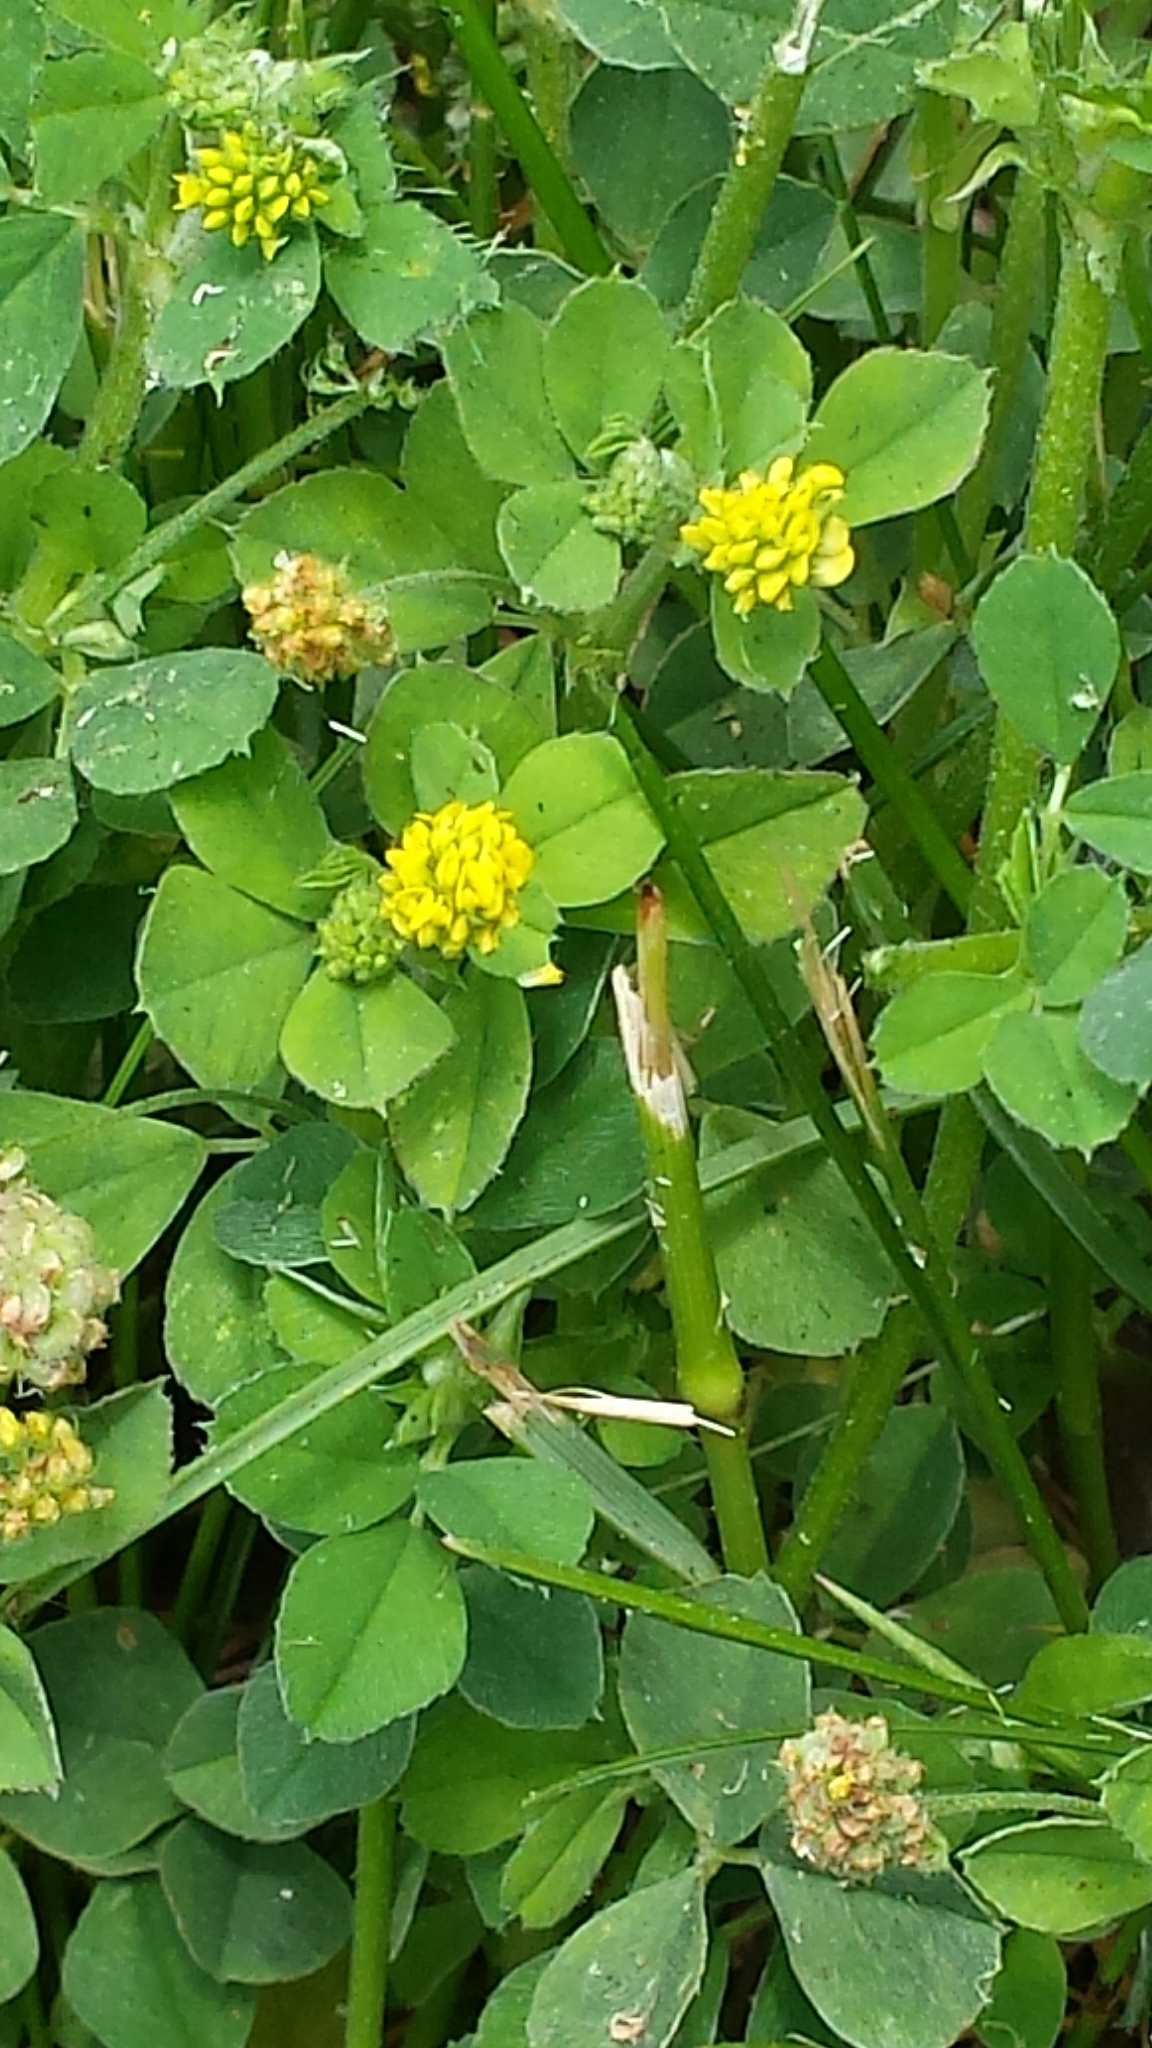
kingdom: Plantae
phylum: Tracheophyta
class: Magnoliopsida
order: Fabales
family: Fabaceae
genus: Medicago
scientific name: Medicago lupulina
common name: Black medick
